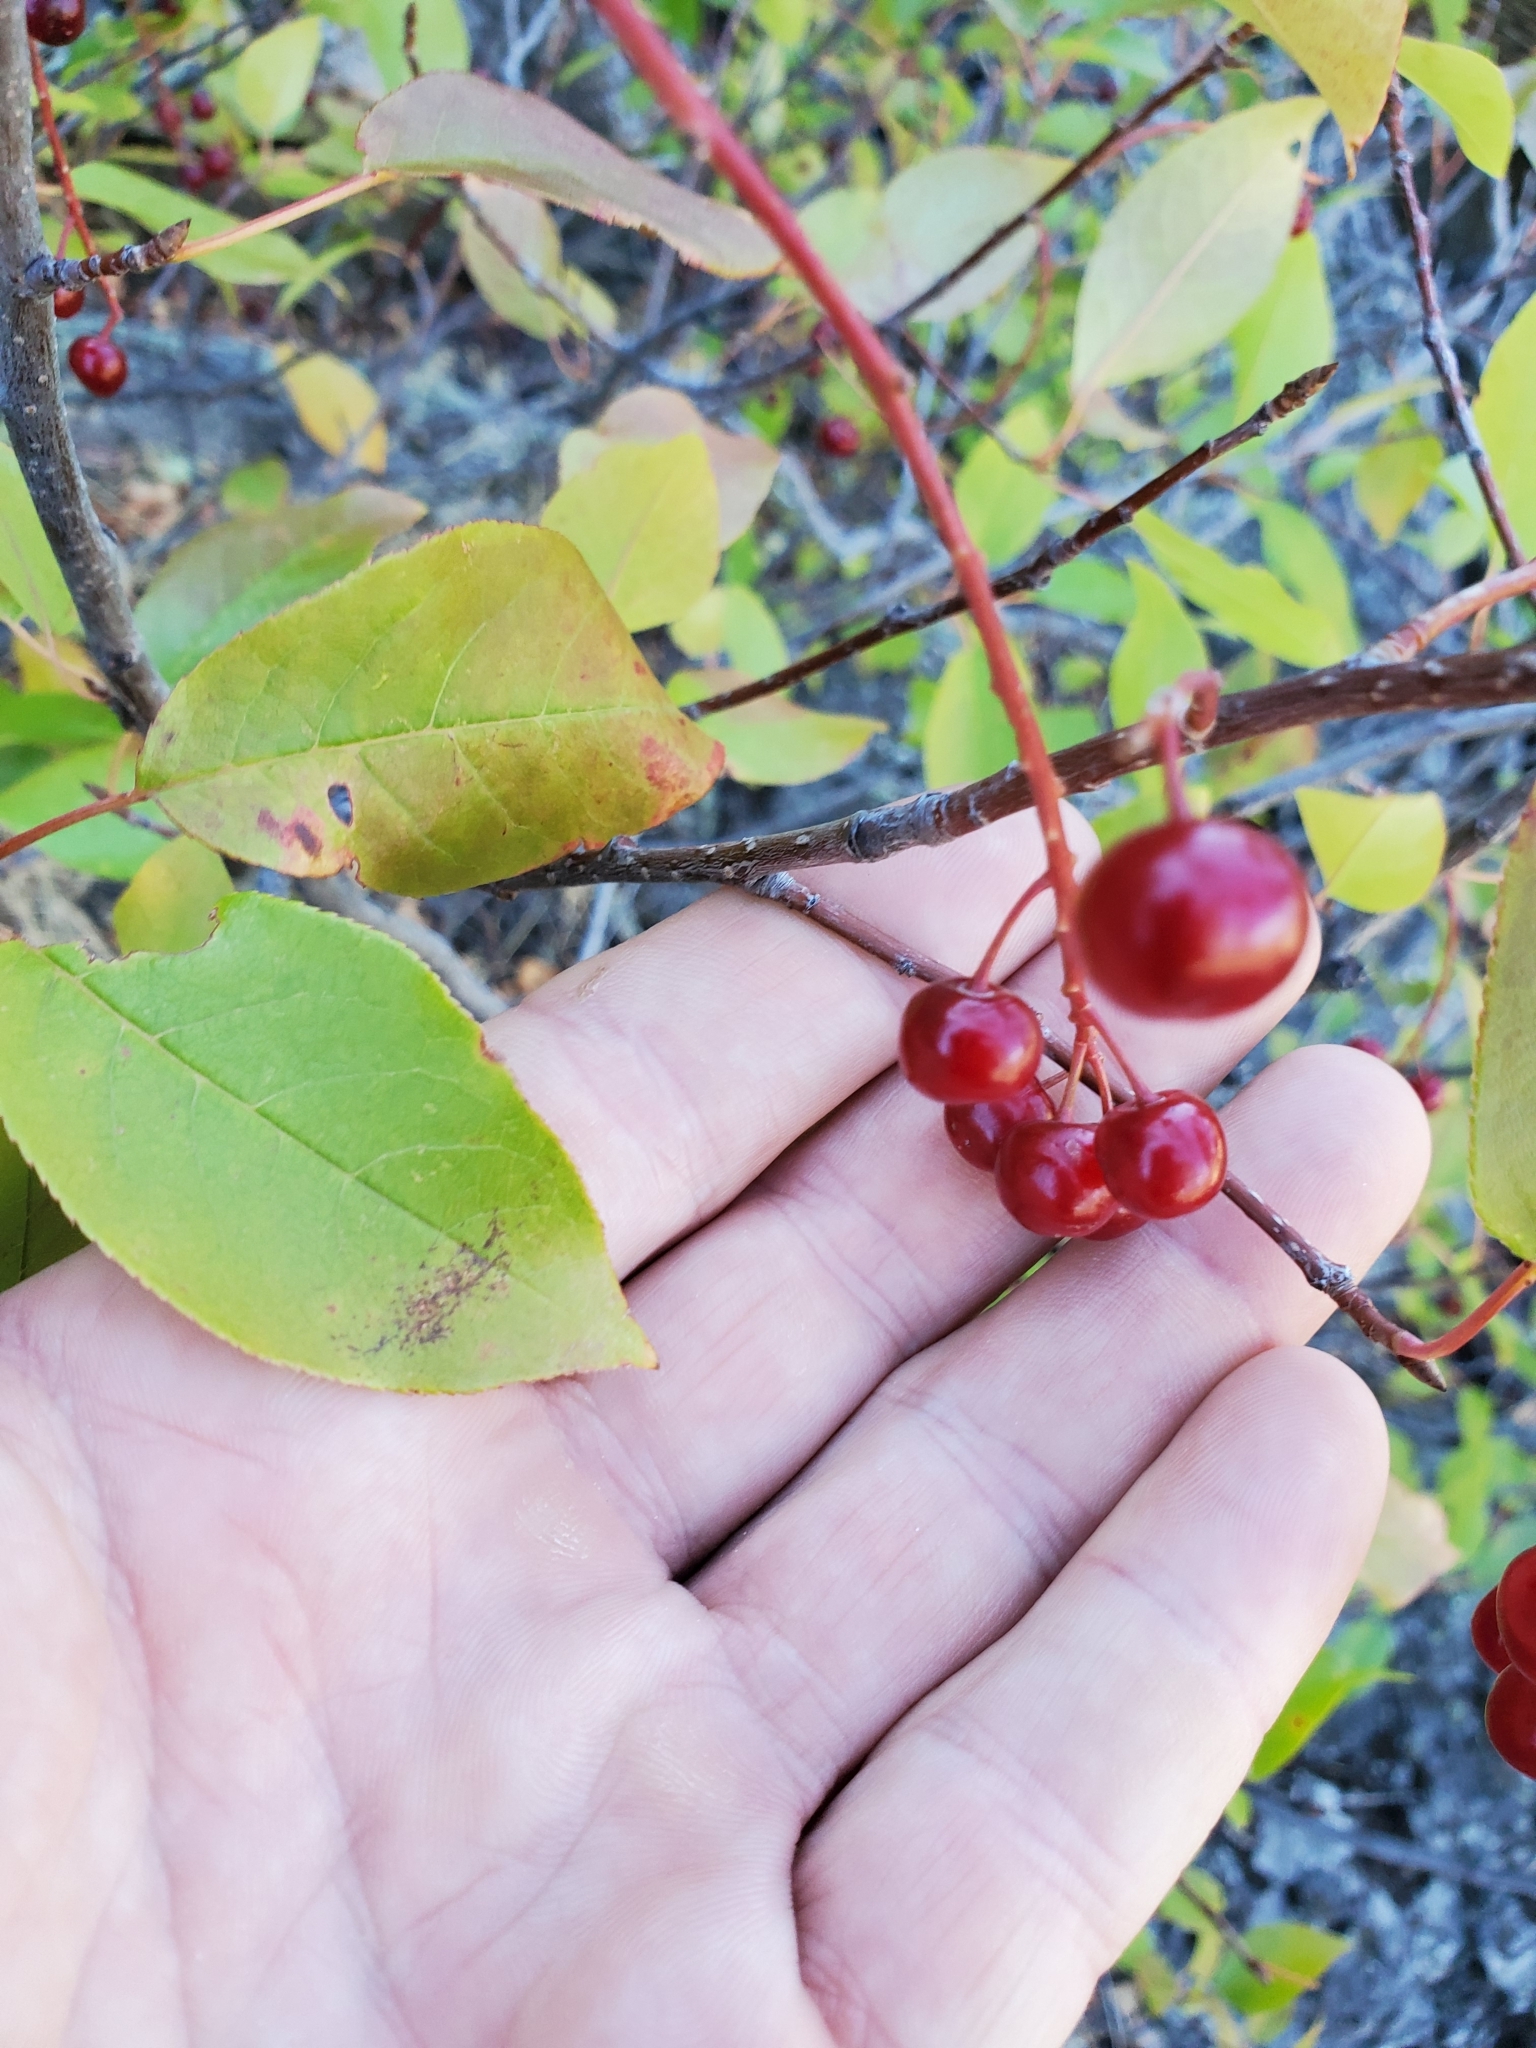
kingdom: Plantae
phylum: Tracheophyta
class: Magnoliopsida
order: Rosales
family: Rosaceae
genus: Prunus
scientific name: Prunus virginiana
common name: Chokecherry
